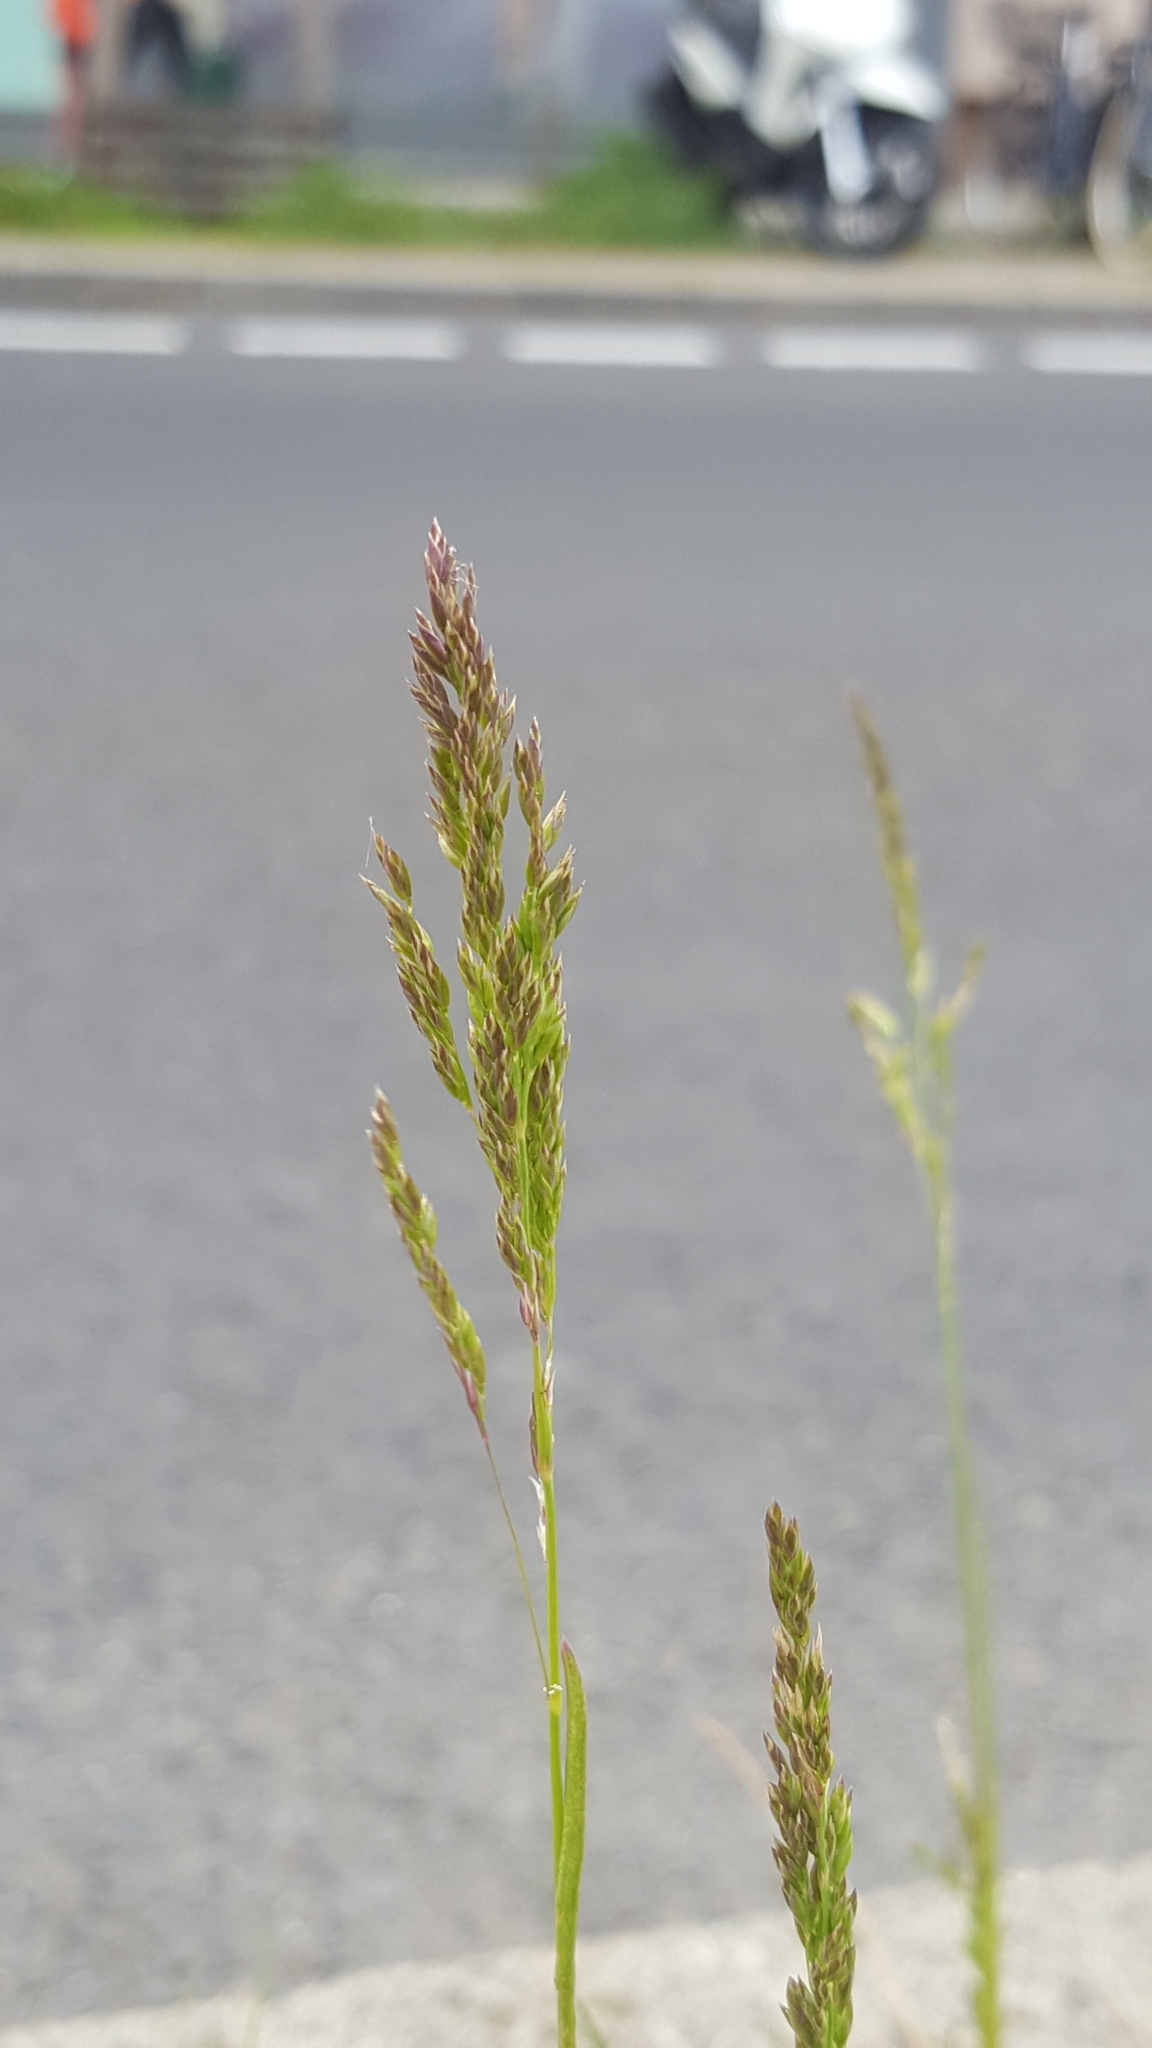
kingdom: Plantae
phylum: Tracheophyta
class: Liliopsida
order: Poales
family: Poaceae
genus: Poa
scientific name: Poa pratensis
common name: Kentucky bluegrass
